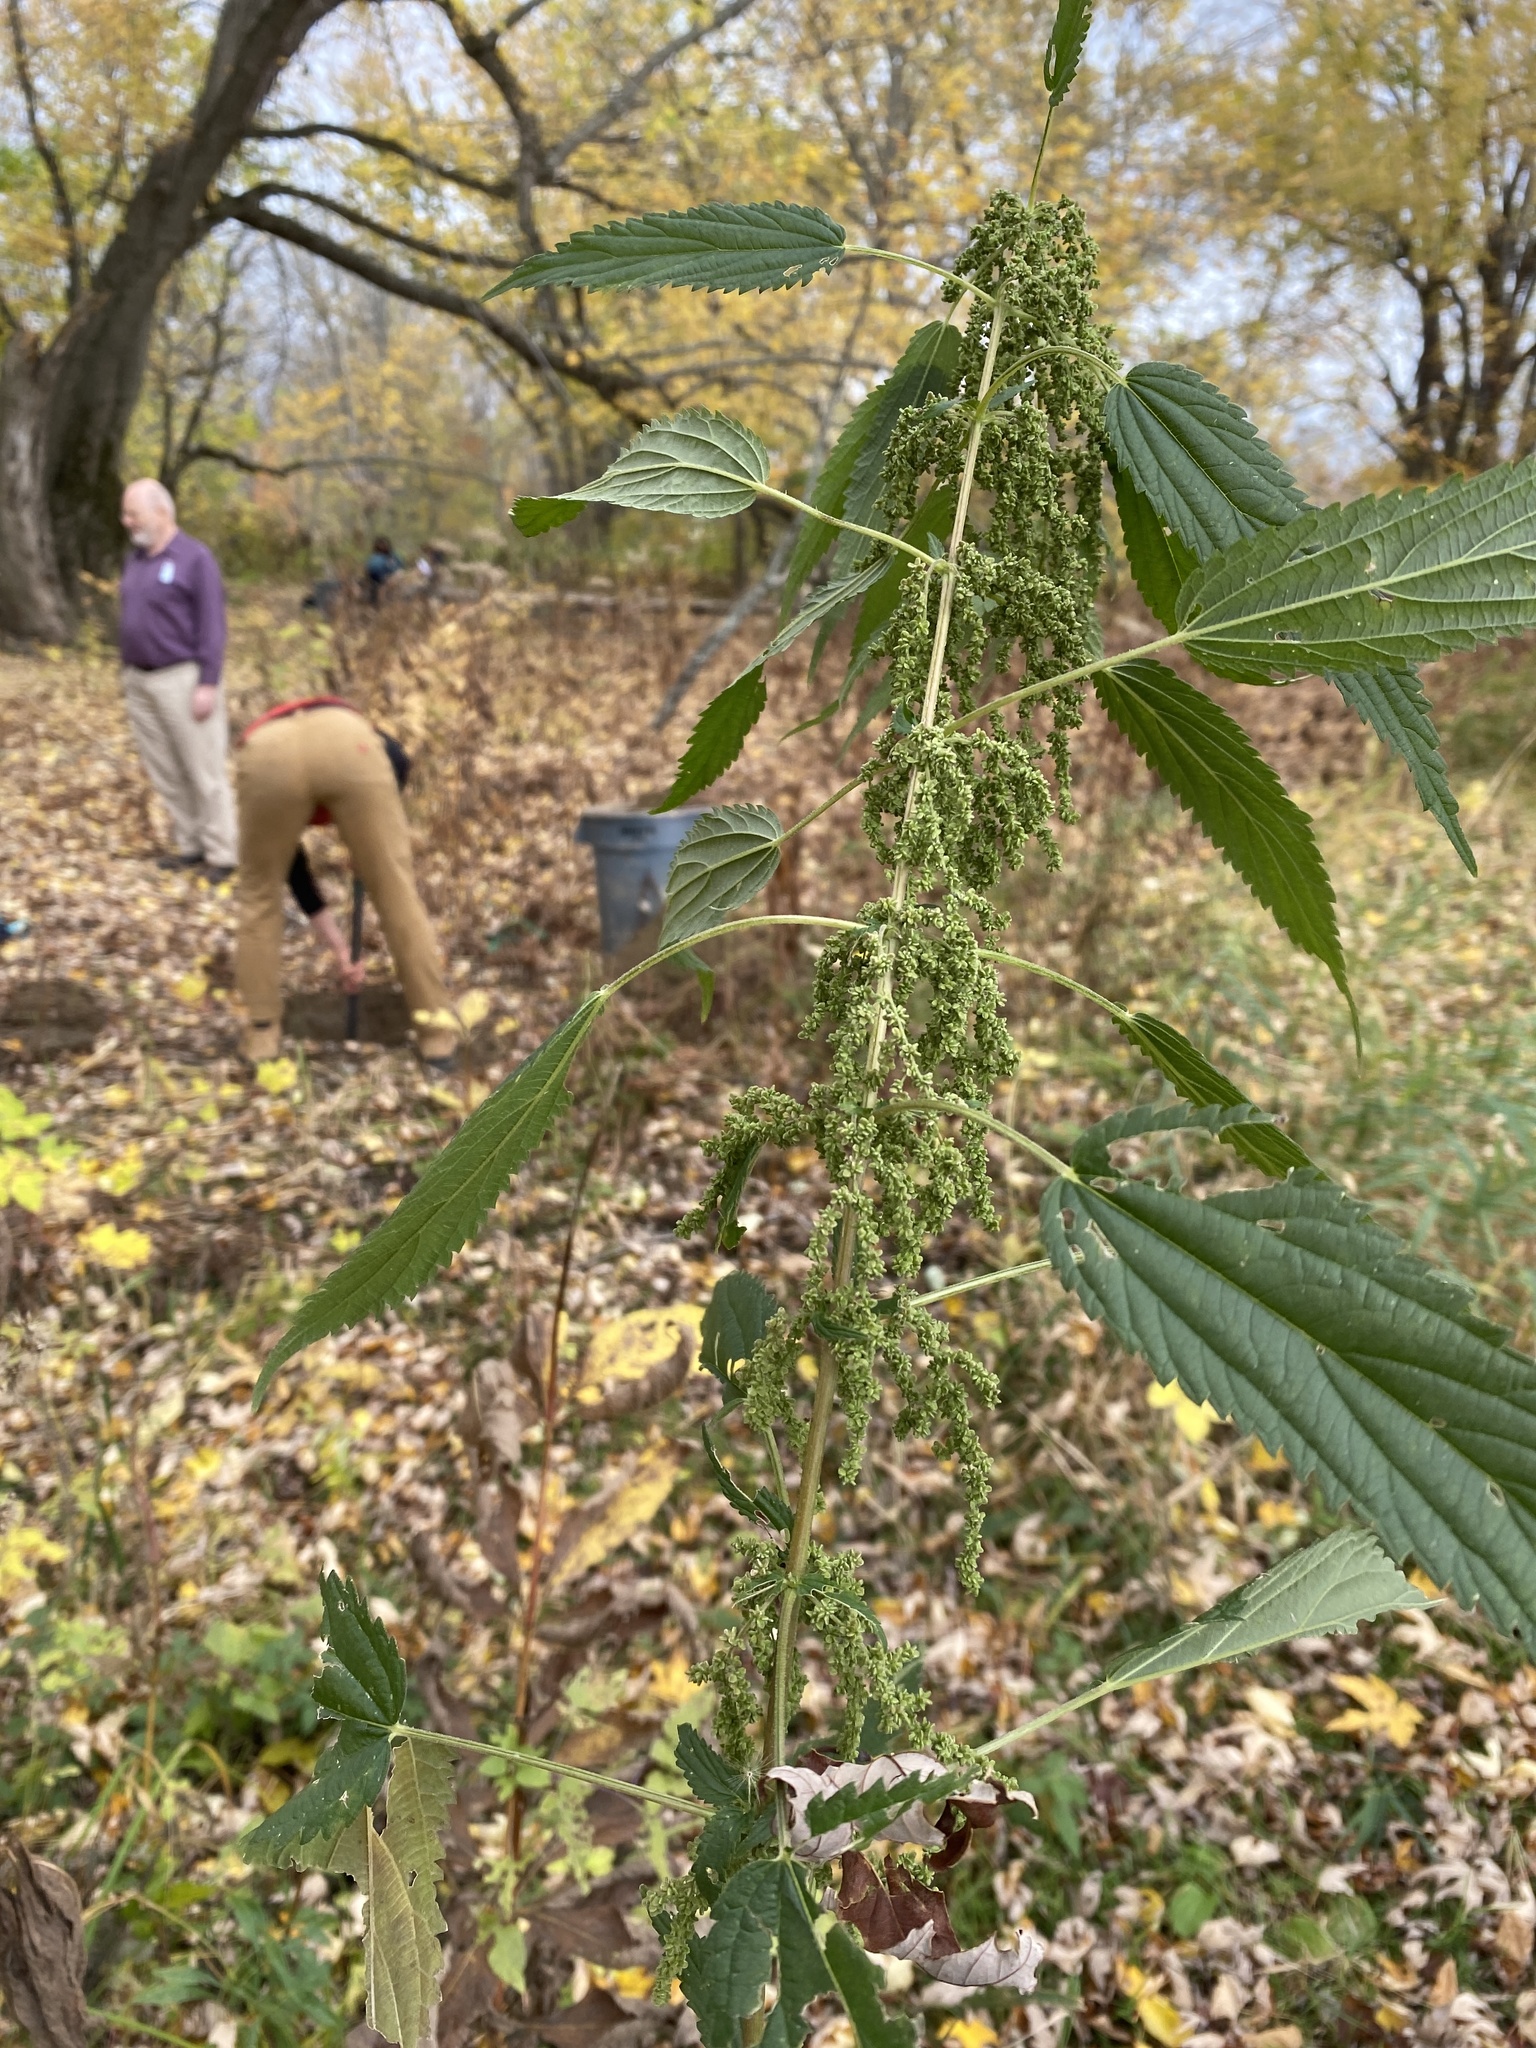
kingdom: Plantae
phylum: Tracheophyta
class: Magnoliopsida
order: Rosales
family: Urticaceae
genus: Urtica
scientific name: Urtica dioica
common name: Common nettle
